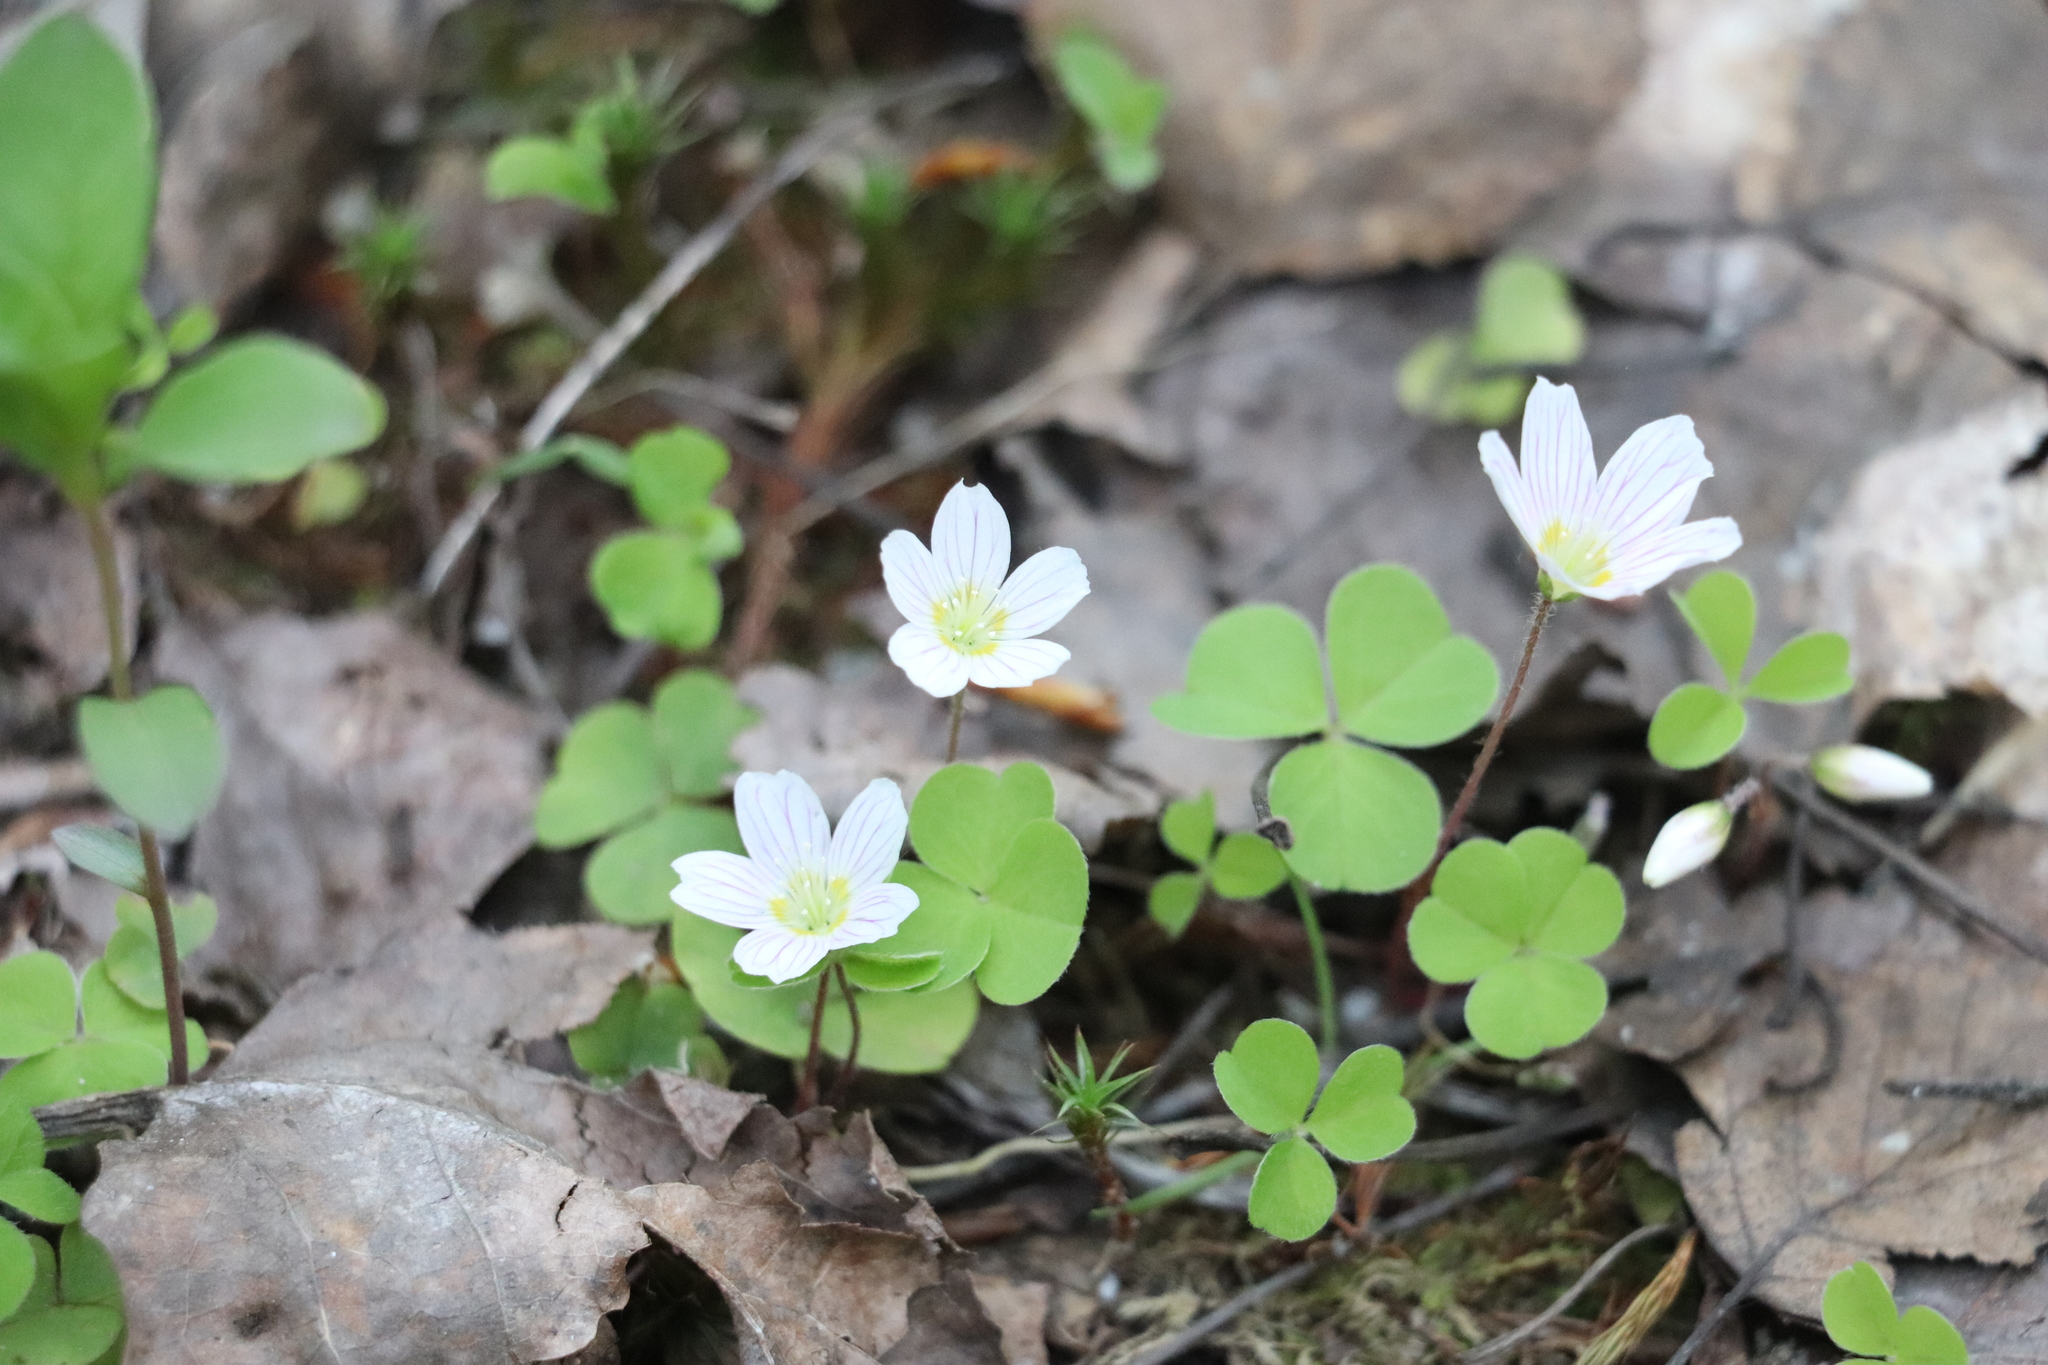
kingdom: Plantae
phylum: Tracheophyta
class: Magnoliopsida
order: Oxalidales
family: Oxalidaceae
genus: Oxalis
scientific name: Oxalis acetosella
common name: Wood-sorrel
